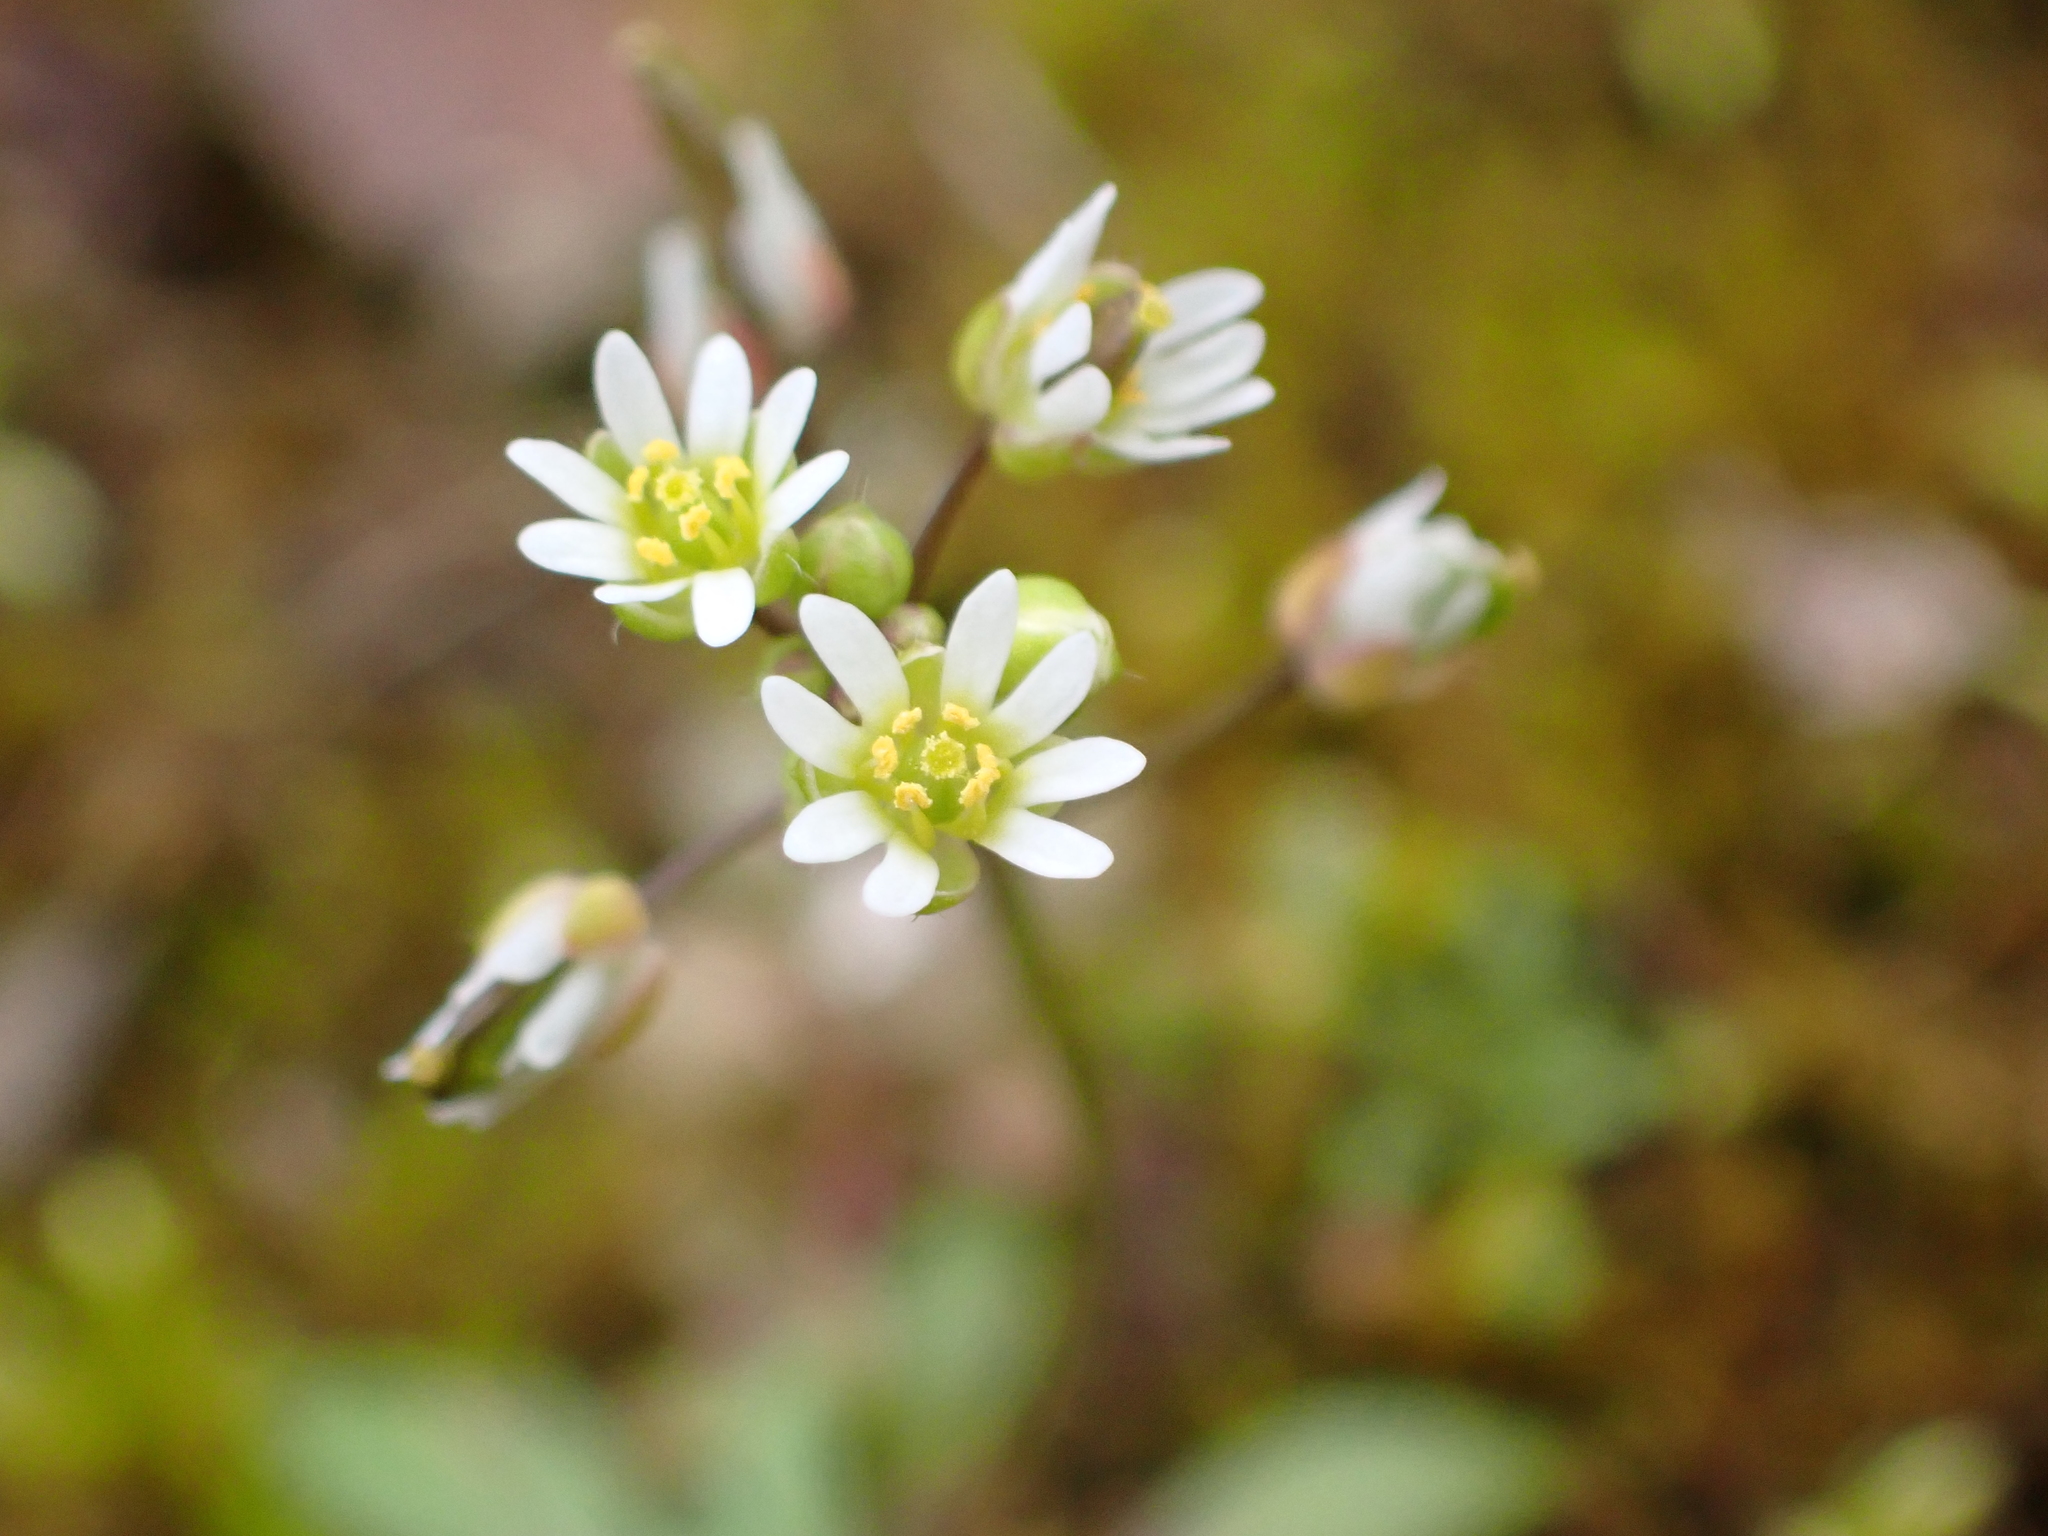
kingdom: Plantae
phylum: Tracheophyta
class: Magnoliopsida
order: Brassicales
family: Brassicaceae
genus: Draba
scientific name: Draba verna
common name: Spring draba
